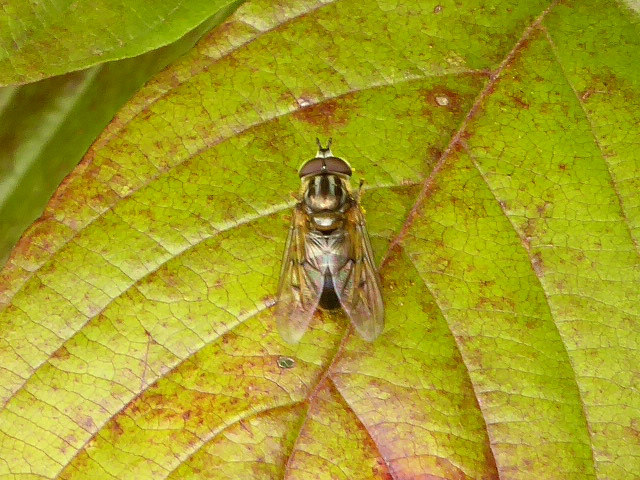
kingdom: Animalia
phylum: Arthropoda
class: Insecta
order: Diptera
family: Syrphidae
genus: Ferdinandea
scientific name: Ferdinandea buccata
